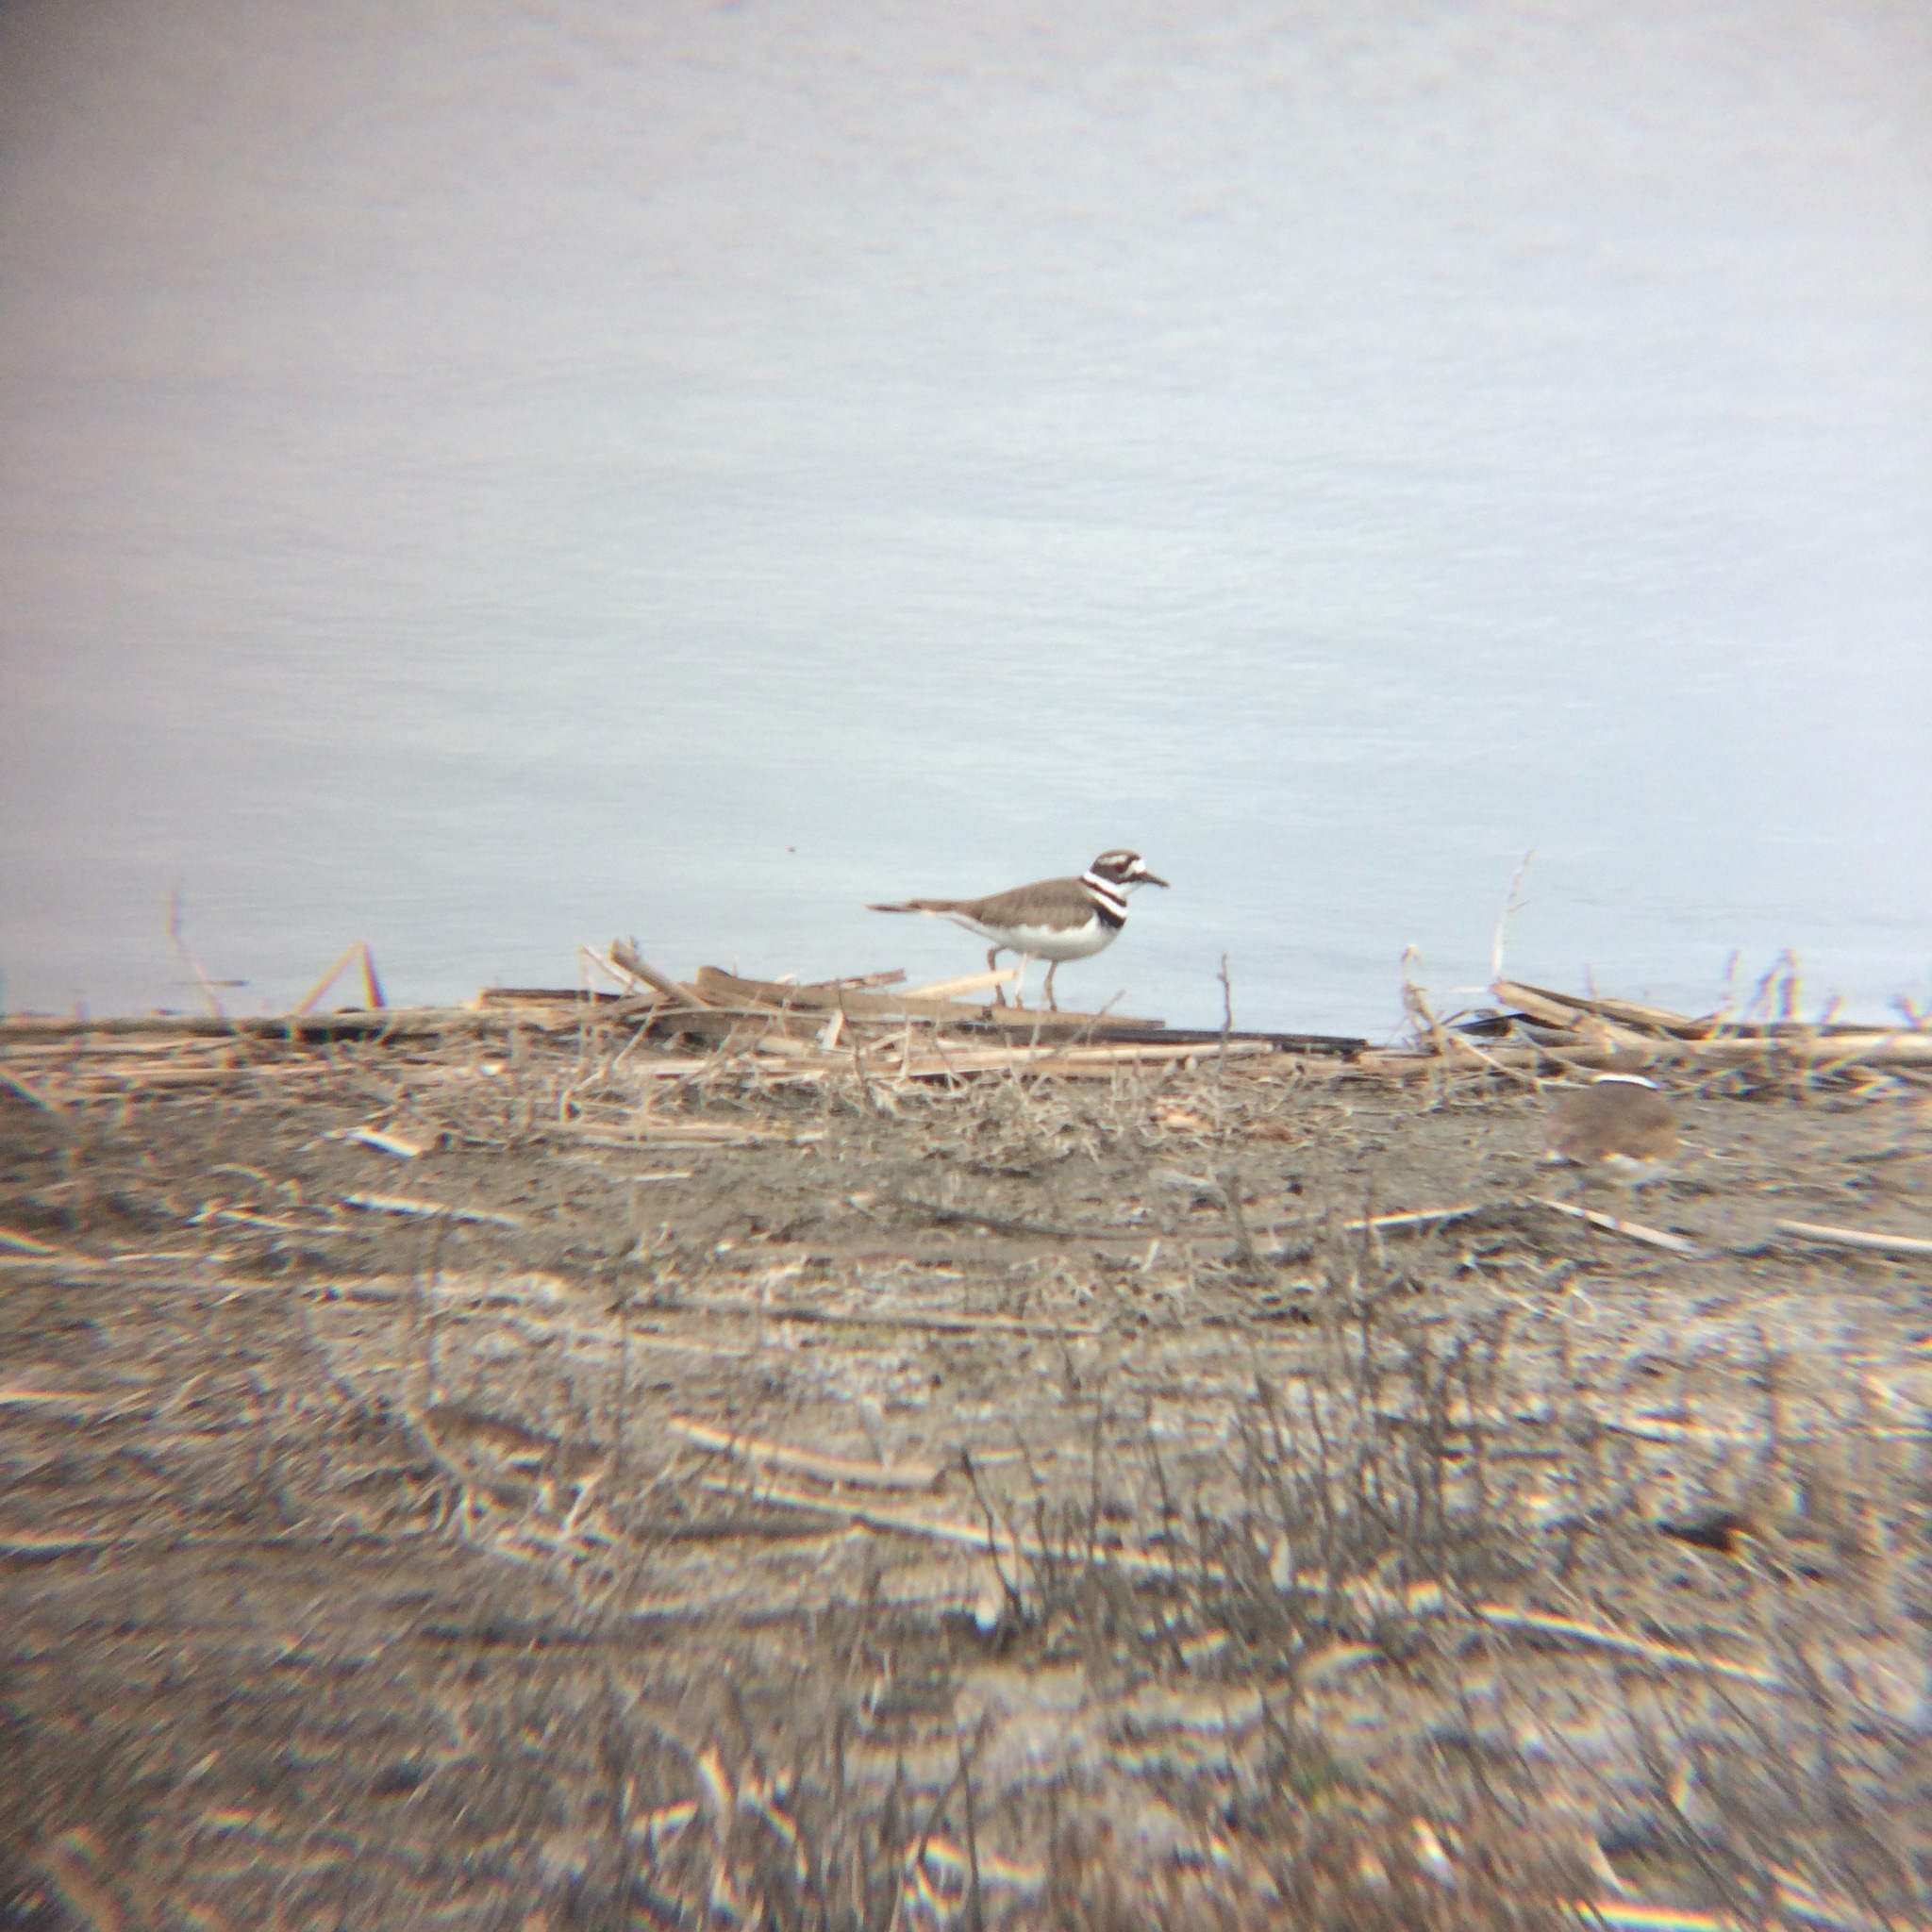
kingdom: Animalia
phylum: Chordata
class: Aves
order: Charadriiformes
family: Charadriidae
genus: Charadrius
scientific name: Charadrius vociferus
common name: Killdeer
